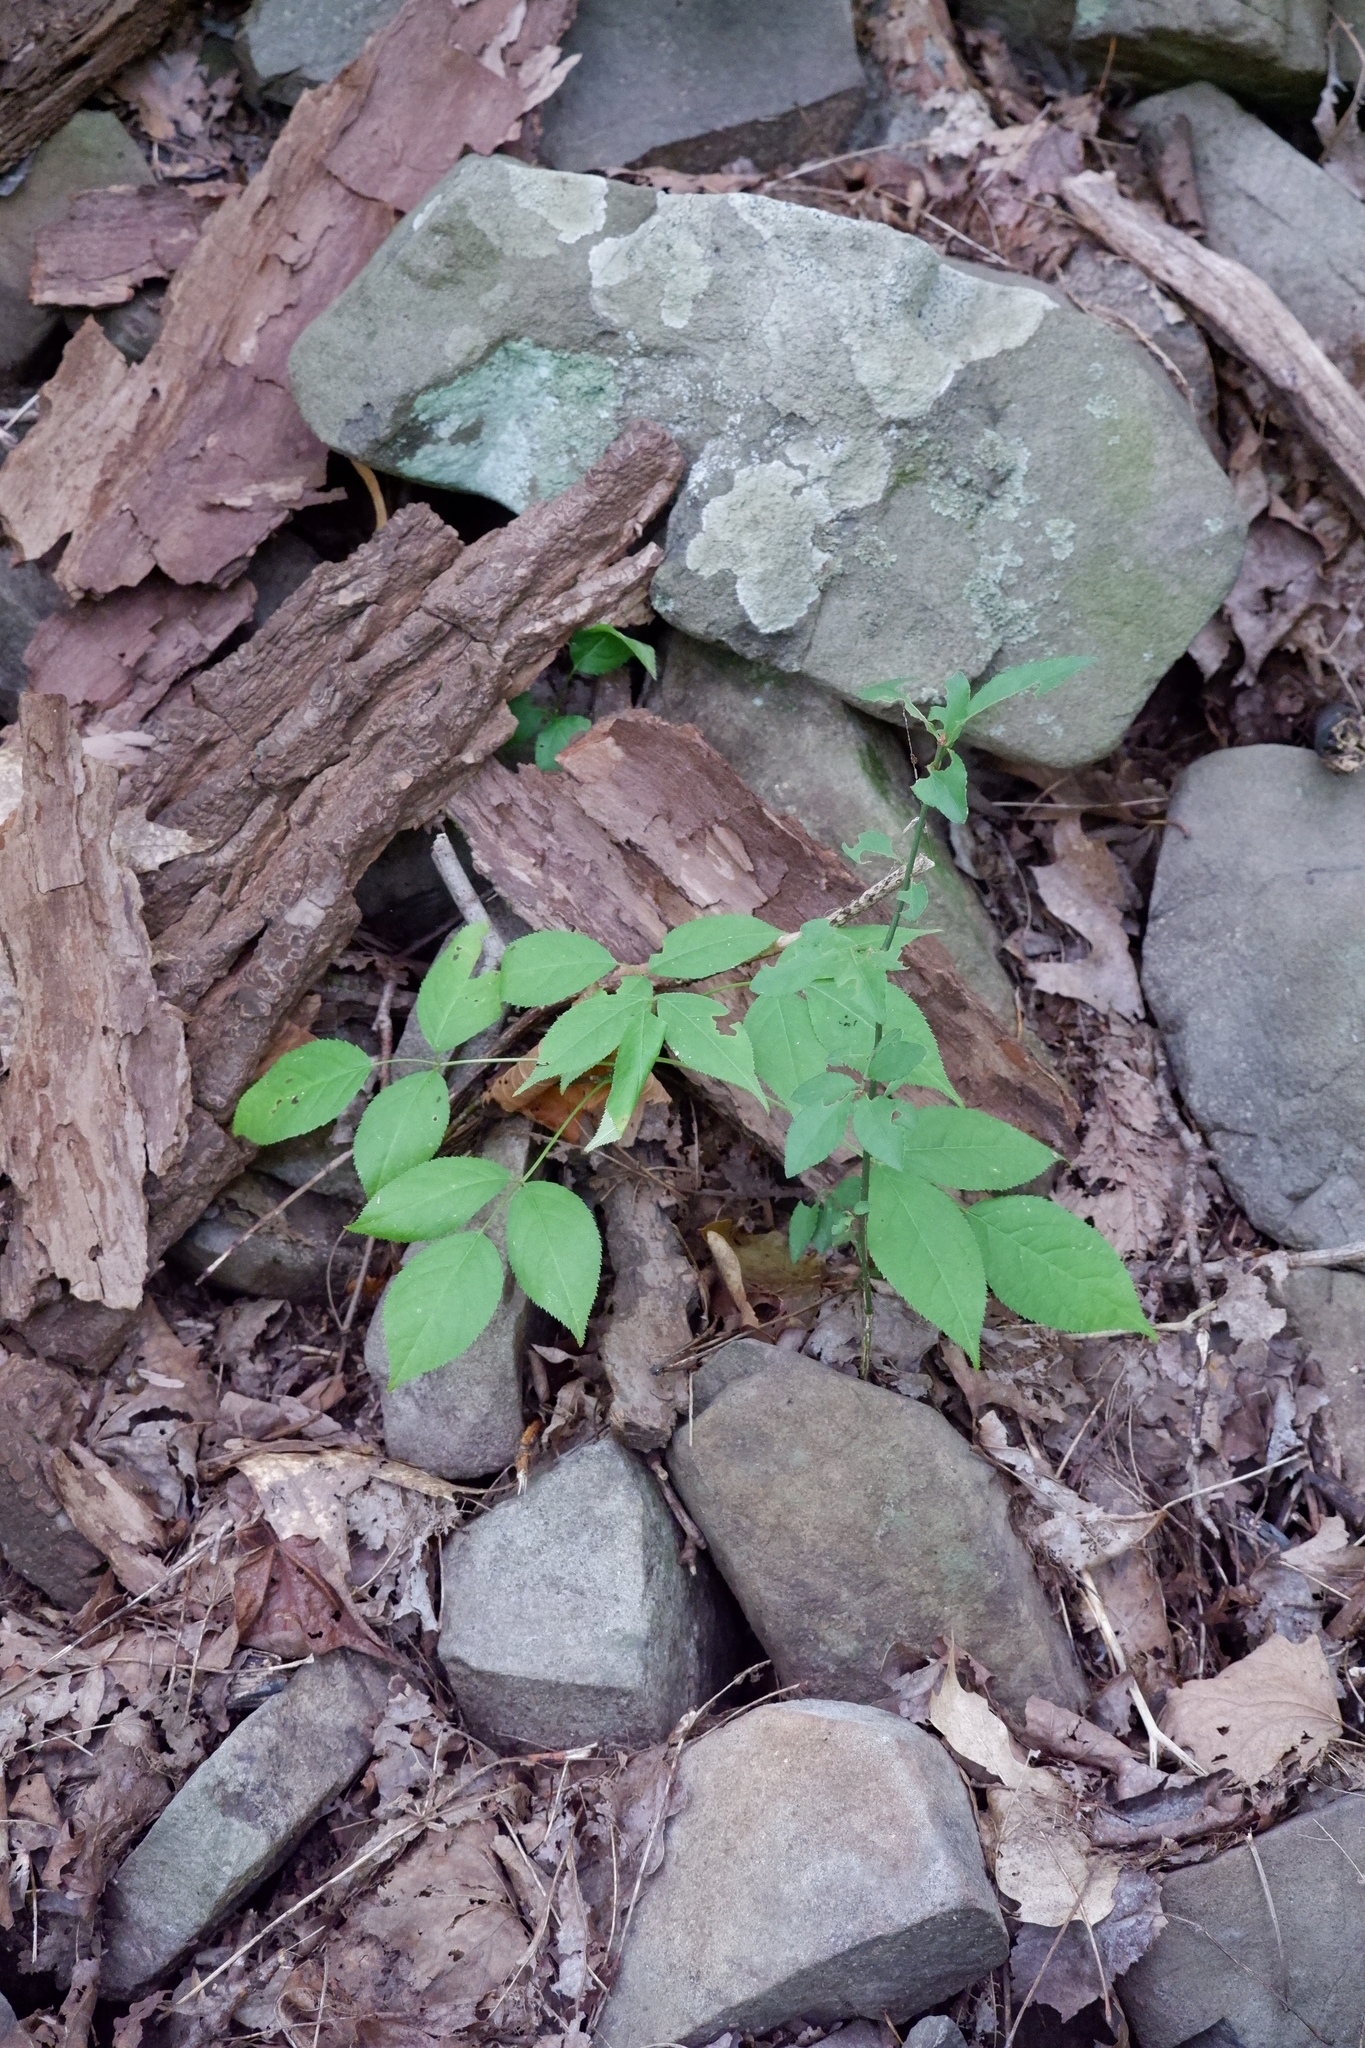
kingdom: Plantae
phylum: Tracheophyta
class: Magnoliopsida
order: Crossosomatales
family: Staphyleaceae
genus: Staphylea
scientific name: Staphylea trifolia
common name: American bladdernut
